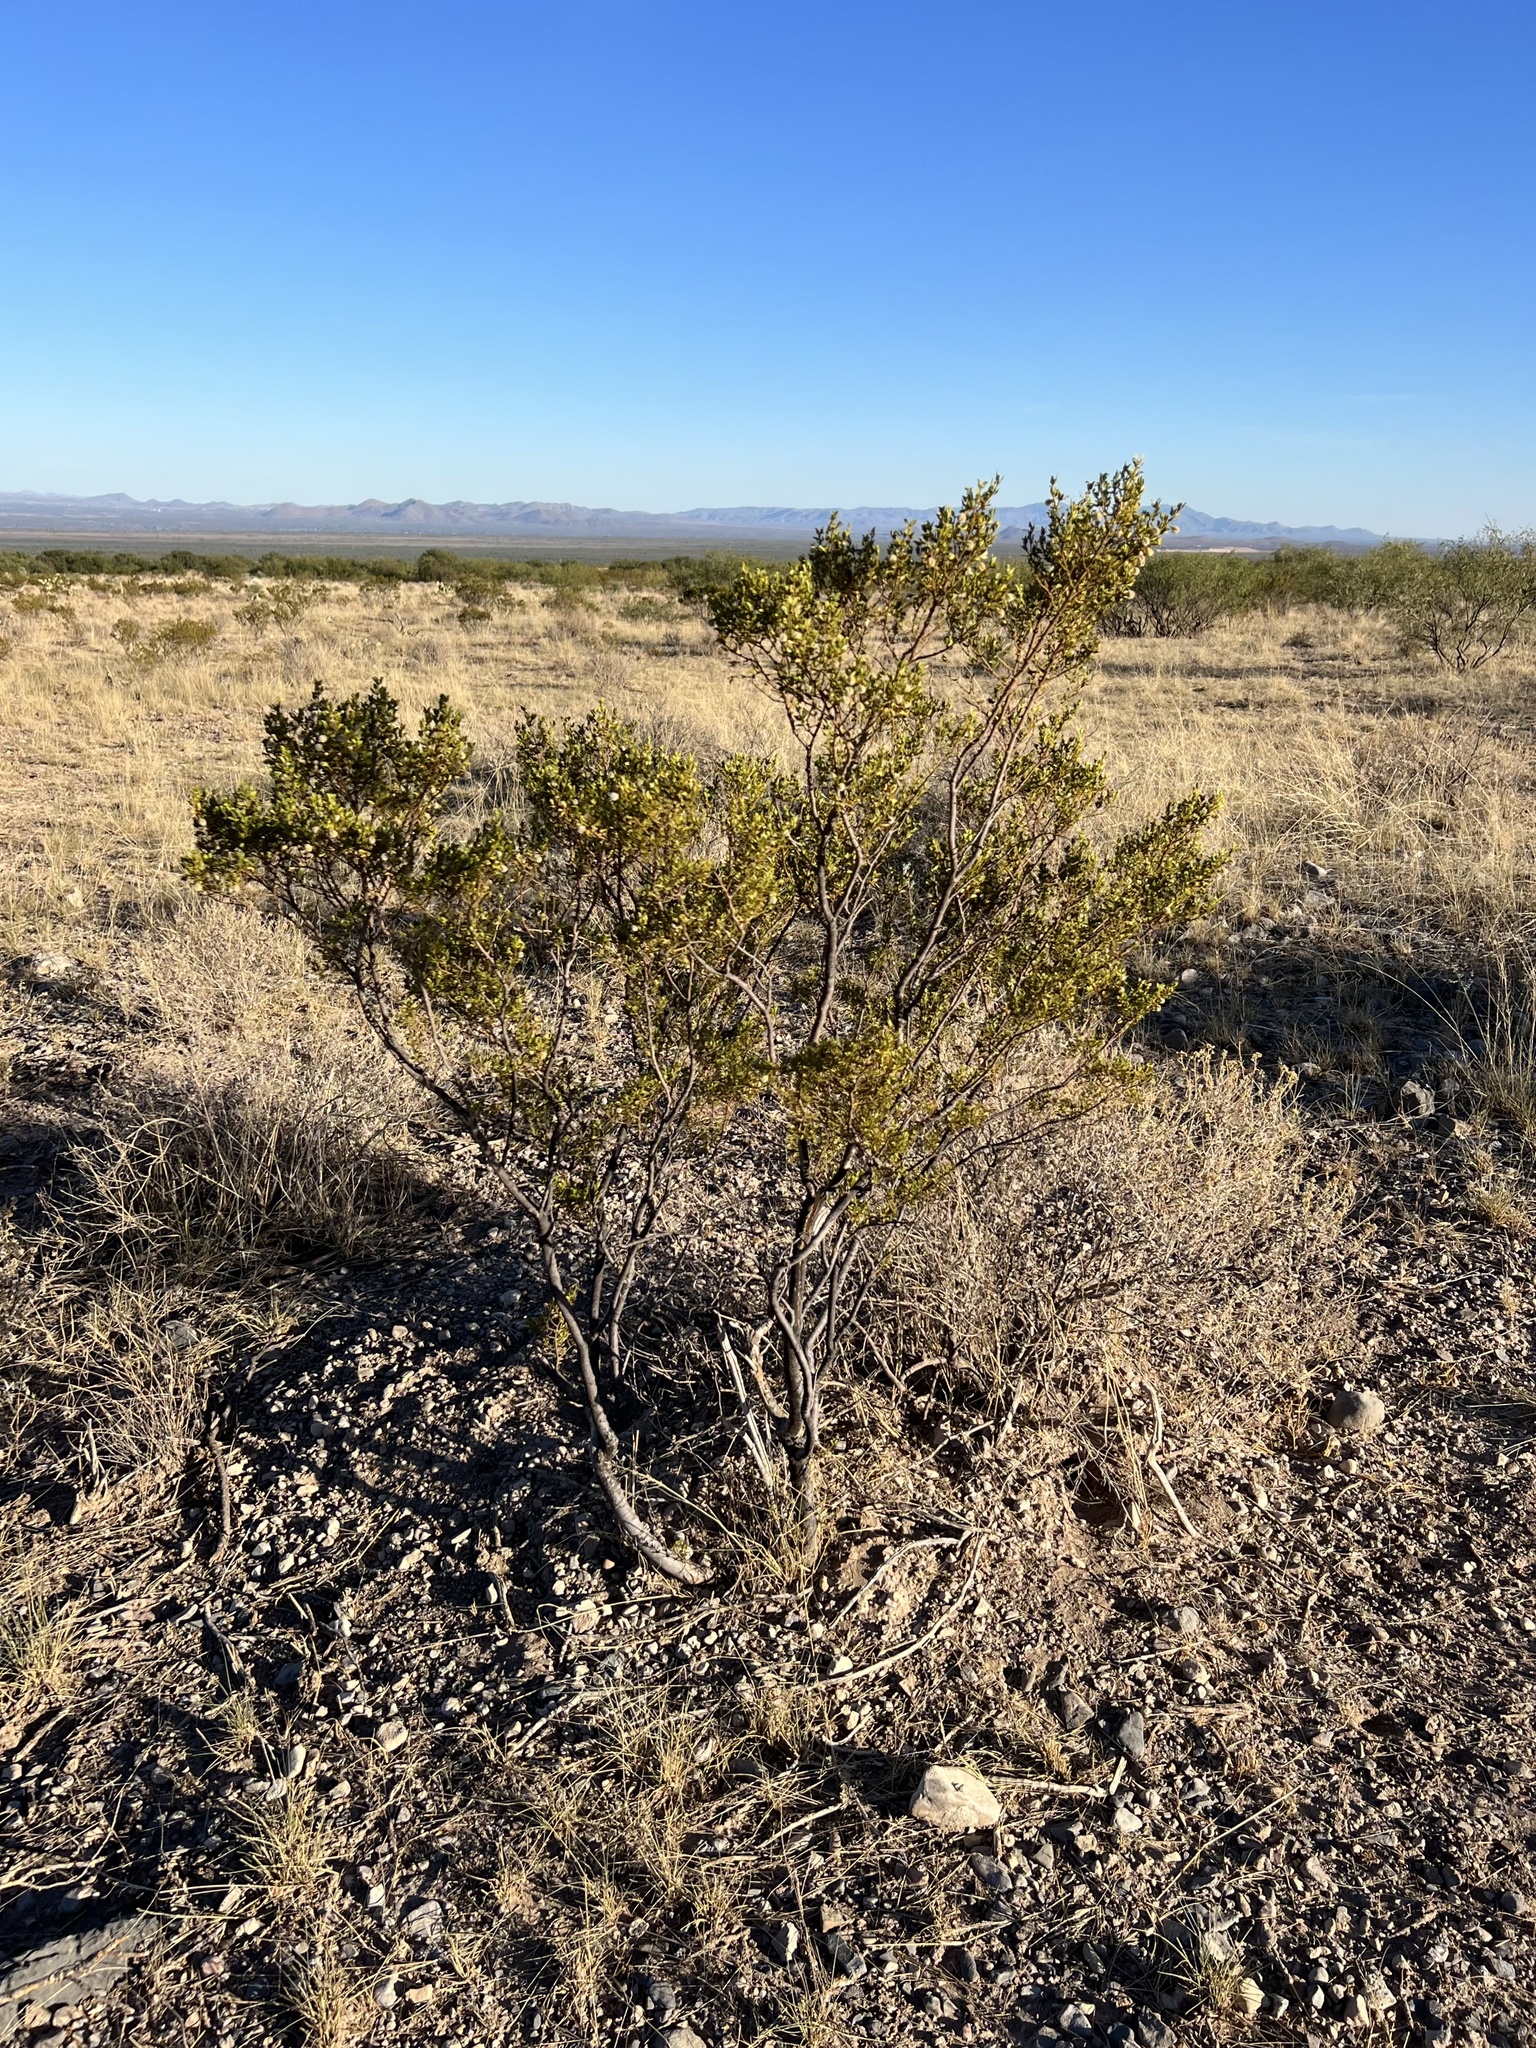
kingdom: Plantae
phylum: Tracheophyta
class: Magnoliopsida
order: Zygophyllales
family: Zygophyllaceae
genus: Larrea
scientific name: Larrea tridentata
